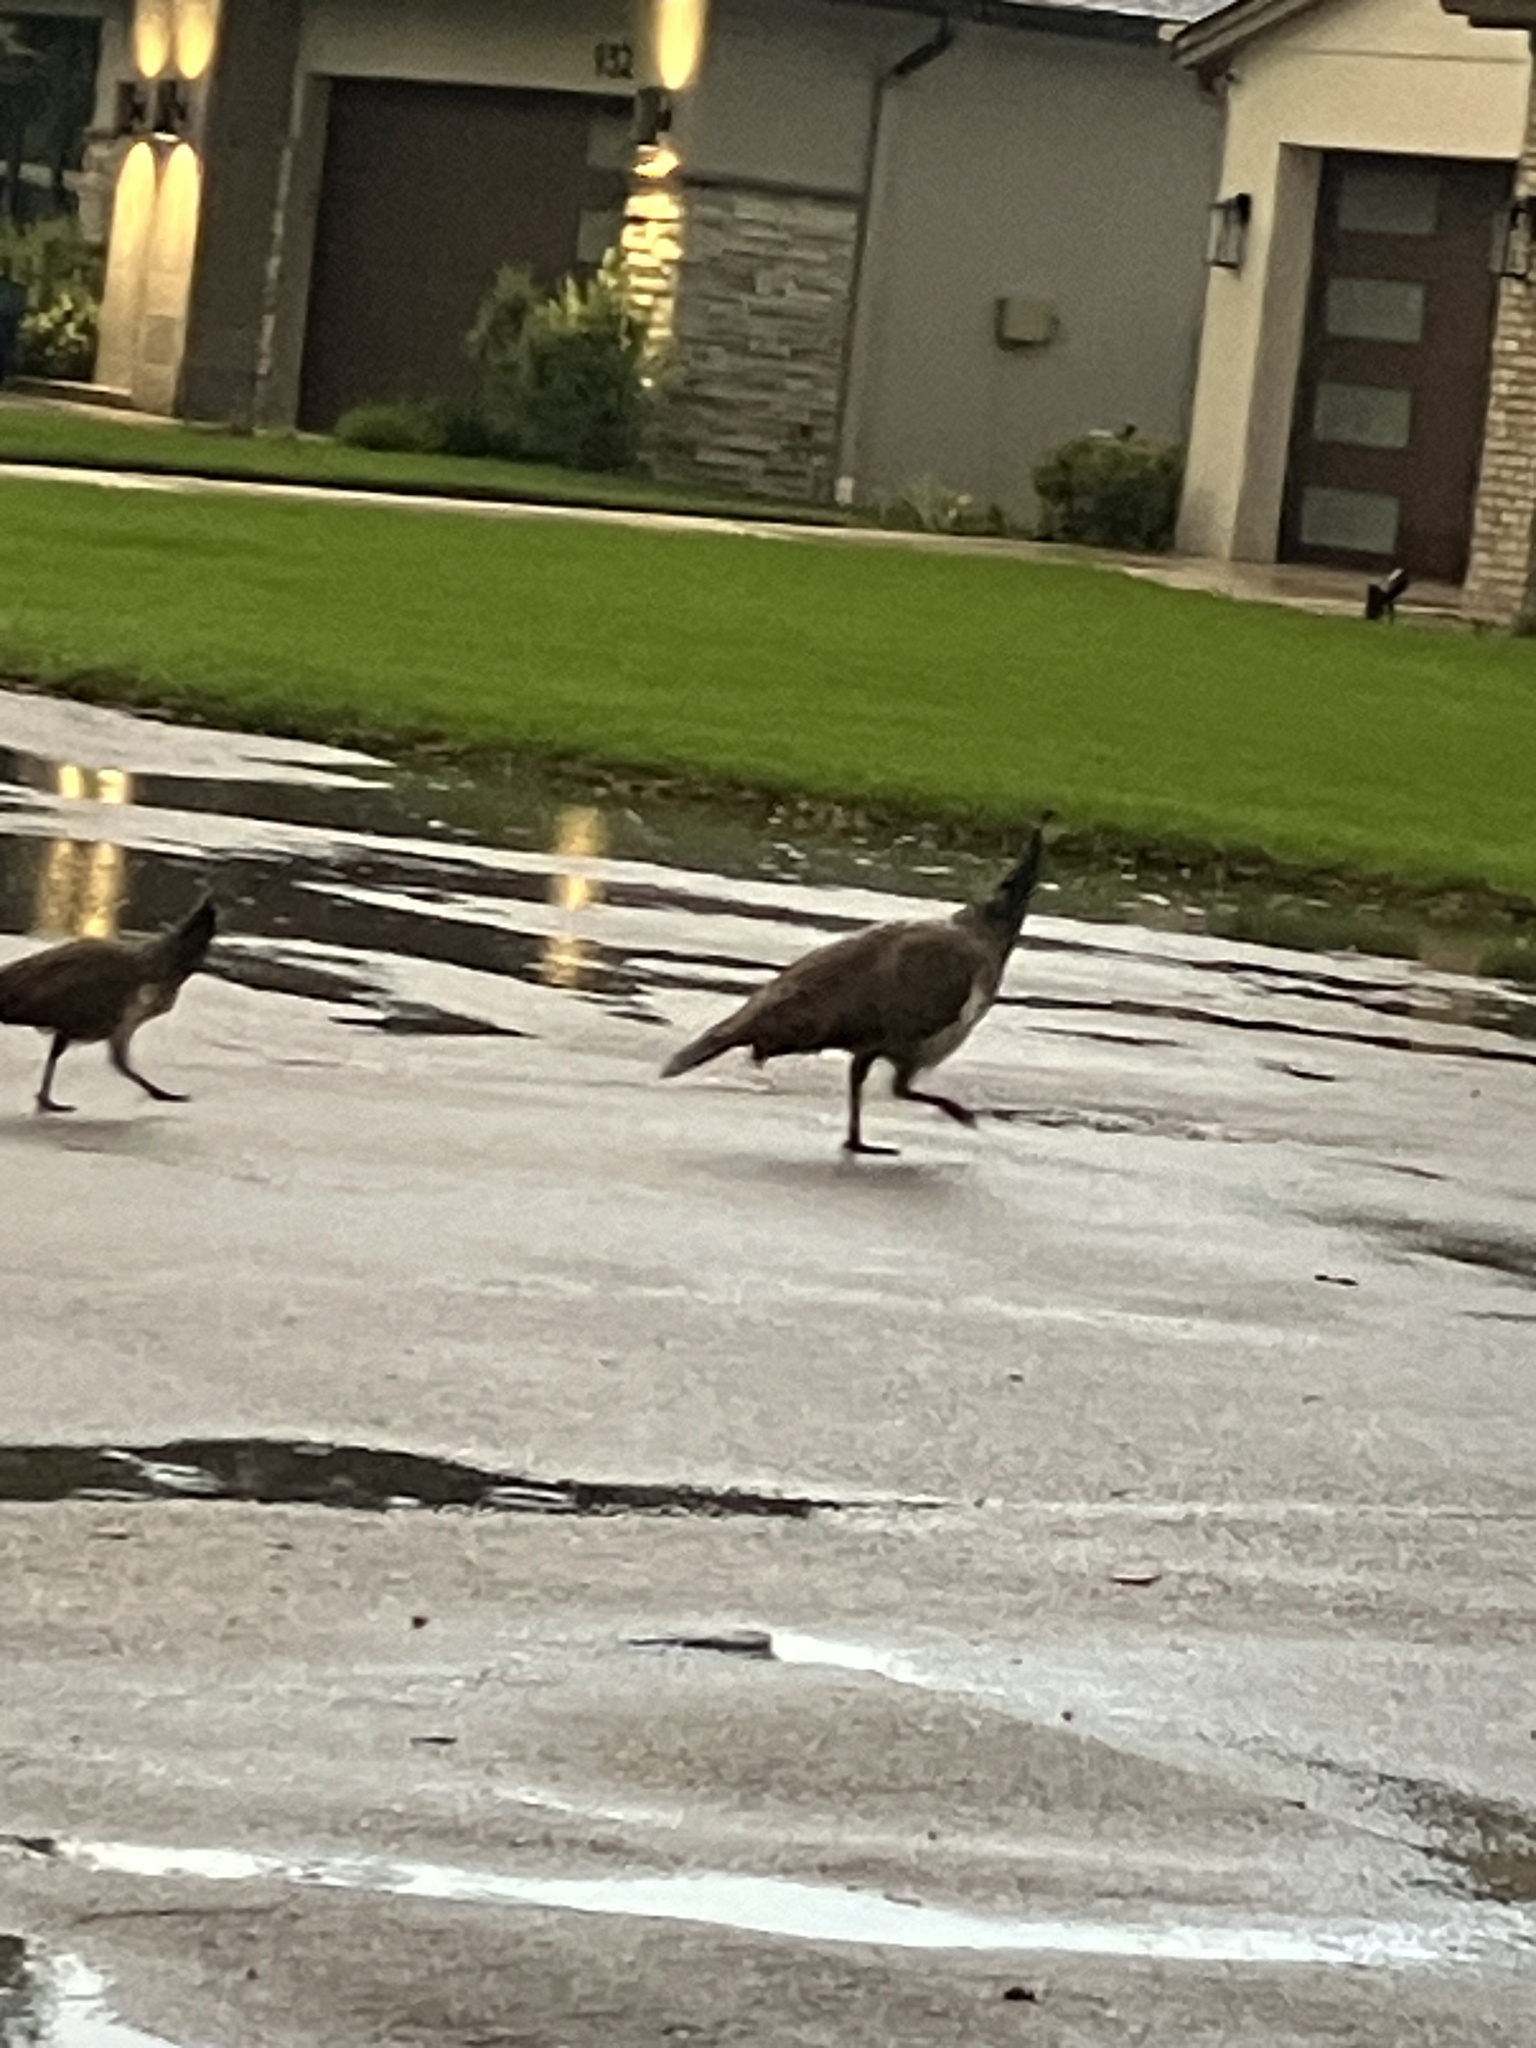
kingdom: Animalia
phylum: Chordata
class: Aves
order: Galliformes
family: Phasianidae
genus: Pavo
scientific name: Pavo cristatus
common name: Indian peafowl
